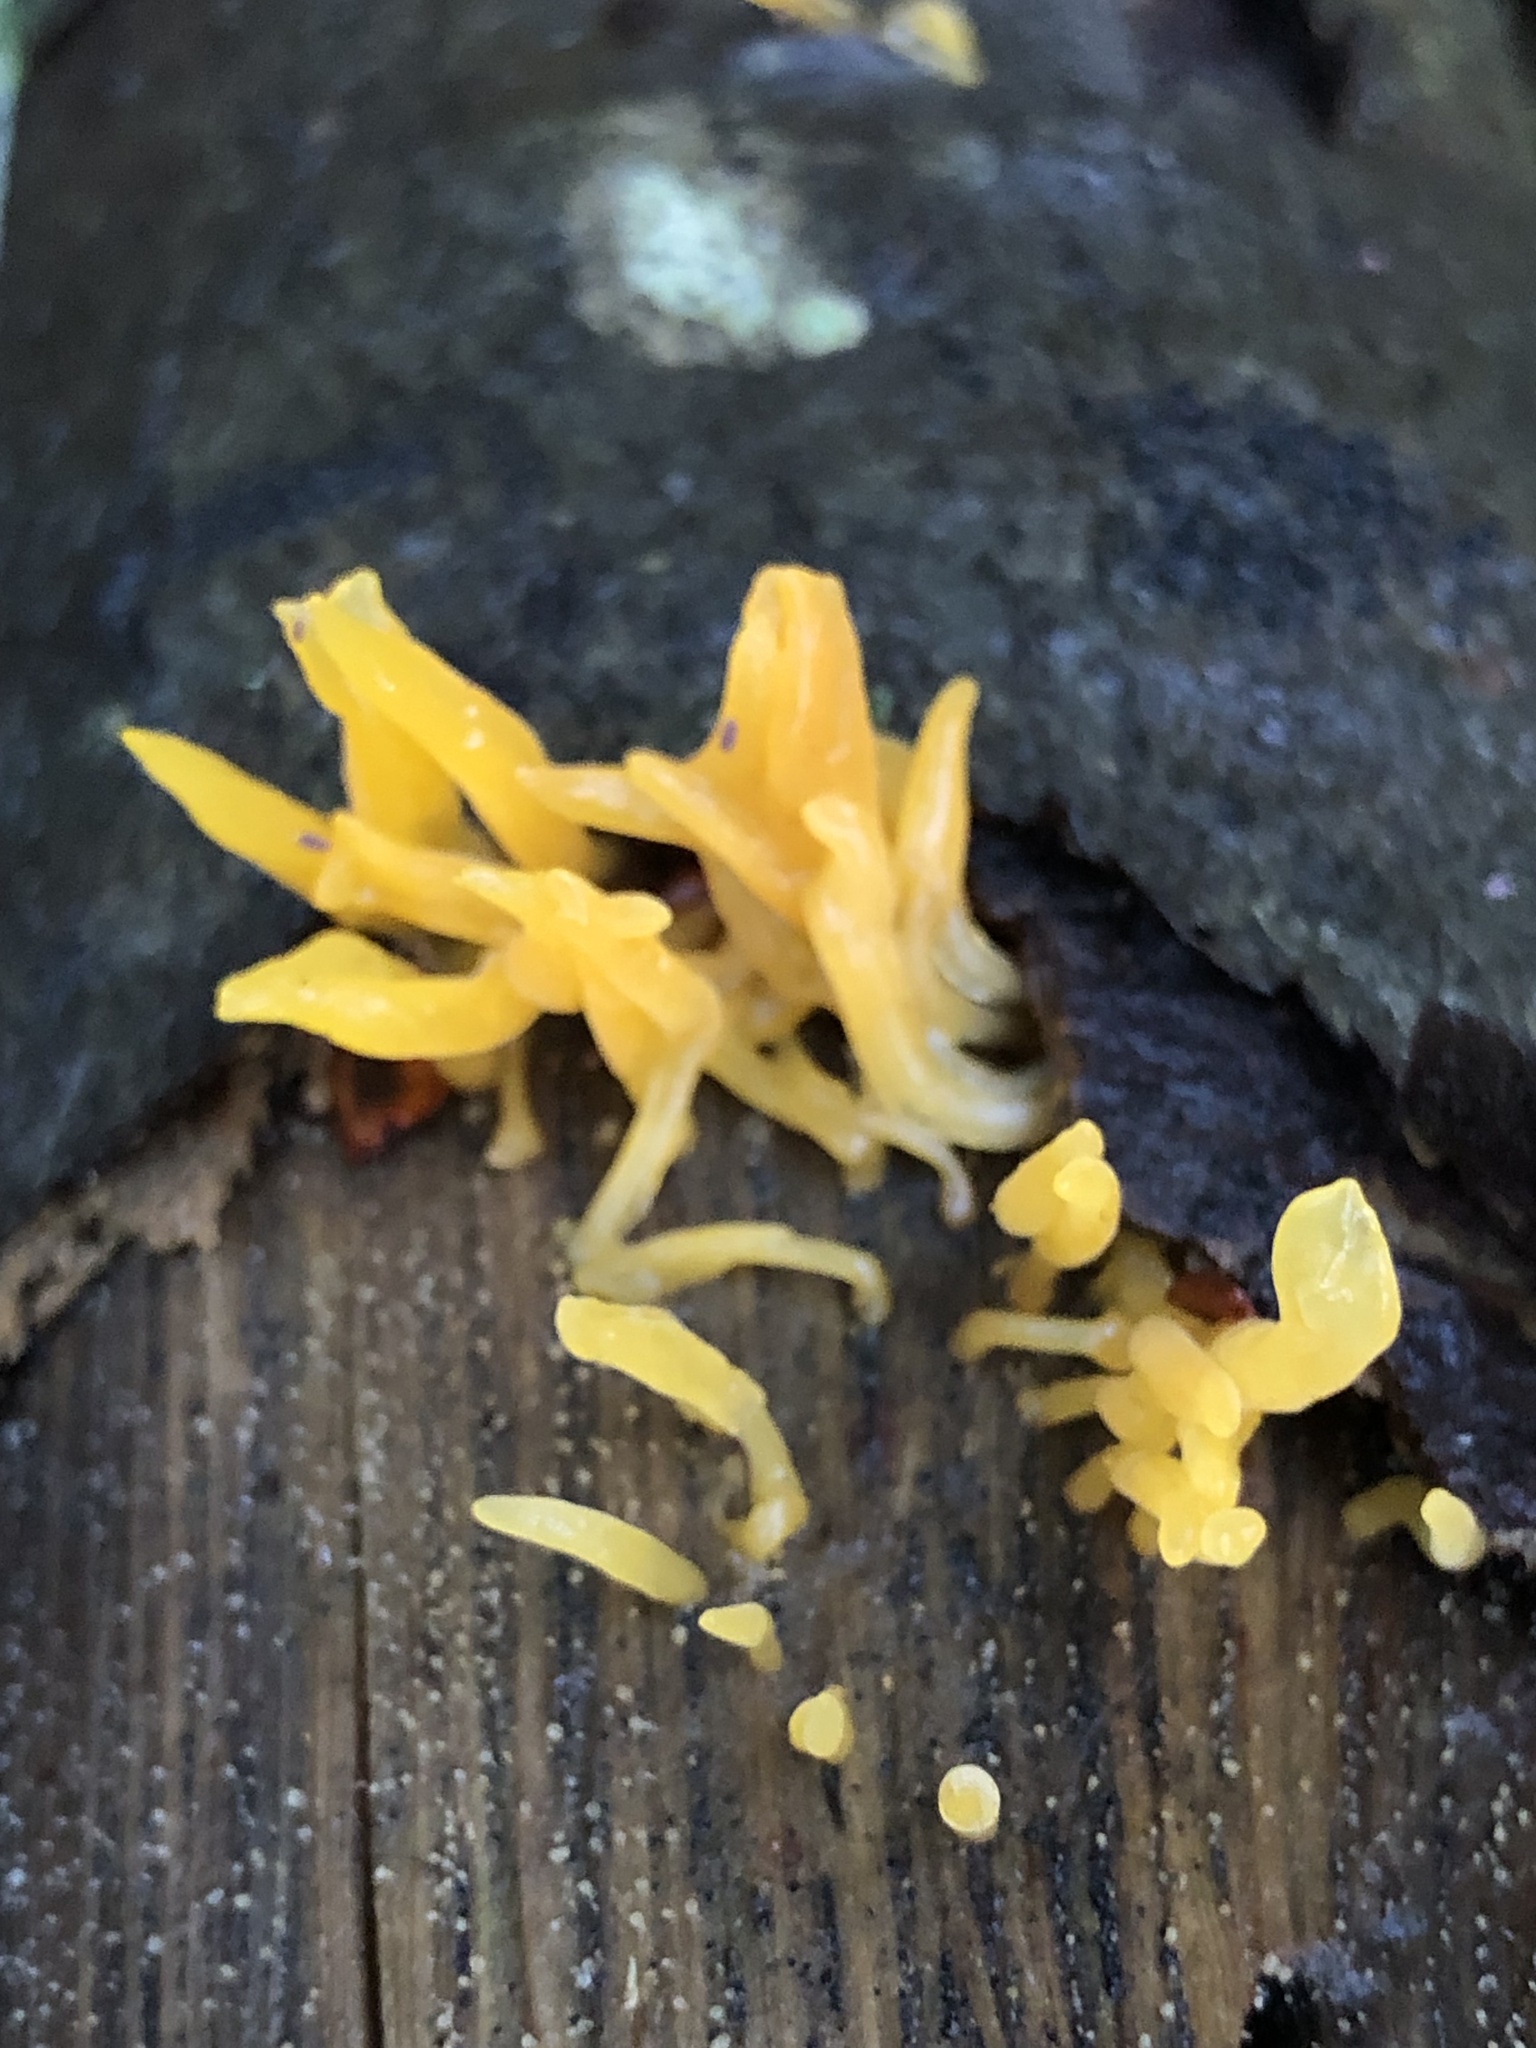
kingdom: Fungi
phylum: Basidiomycota
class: Dacrymycetes
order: Dacrymycetales
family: Dacrymycetaceae
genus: Calocera
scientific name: Calocera cornea
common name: Small stagshorn
